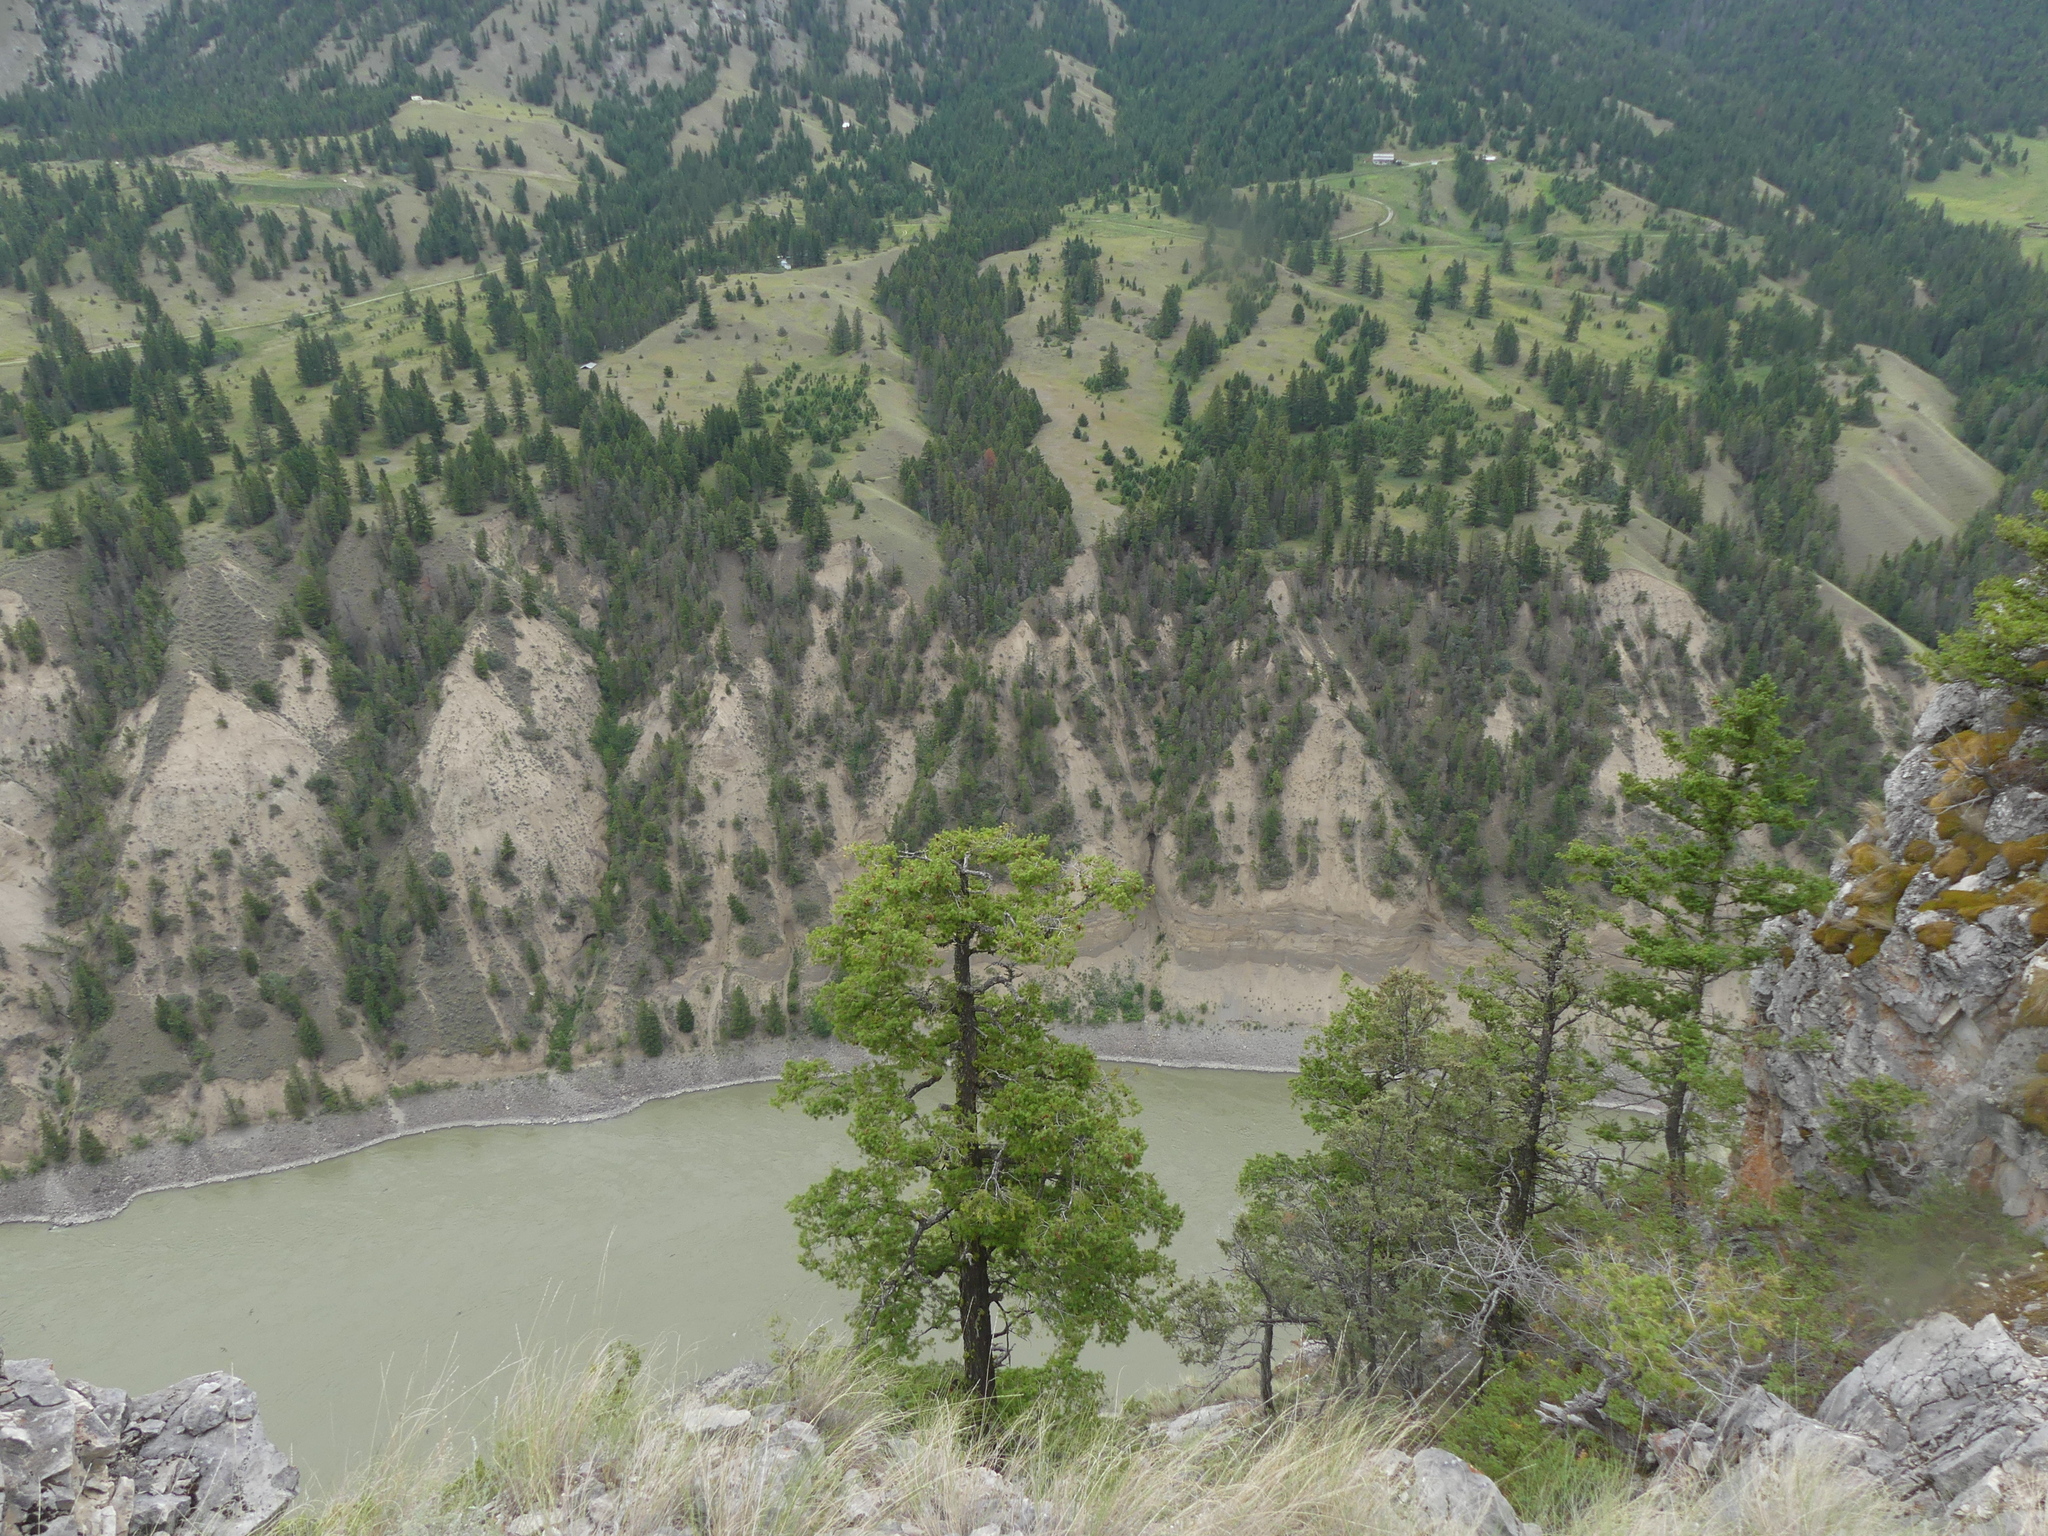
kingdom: Plantae
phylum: Tracheophyta
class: Pinopsida
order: Pinales
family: Pinaceae
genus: Pseudotsuga
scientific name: Pseudotsuga menziesii
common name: Douglas fir
